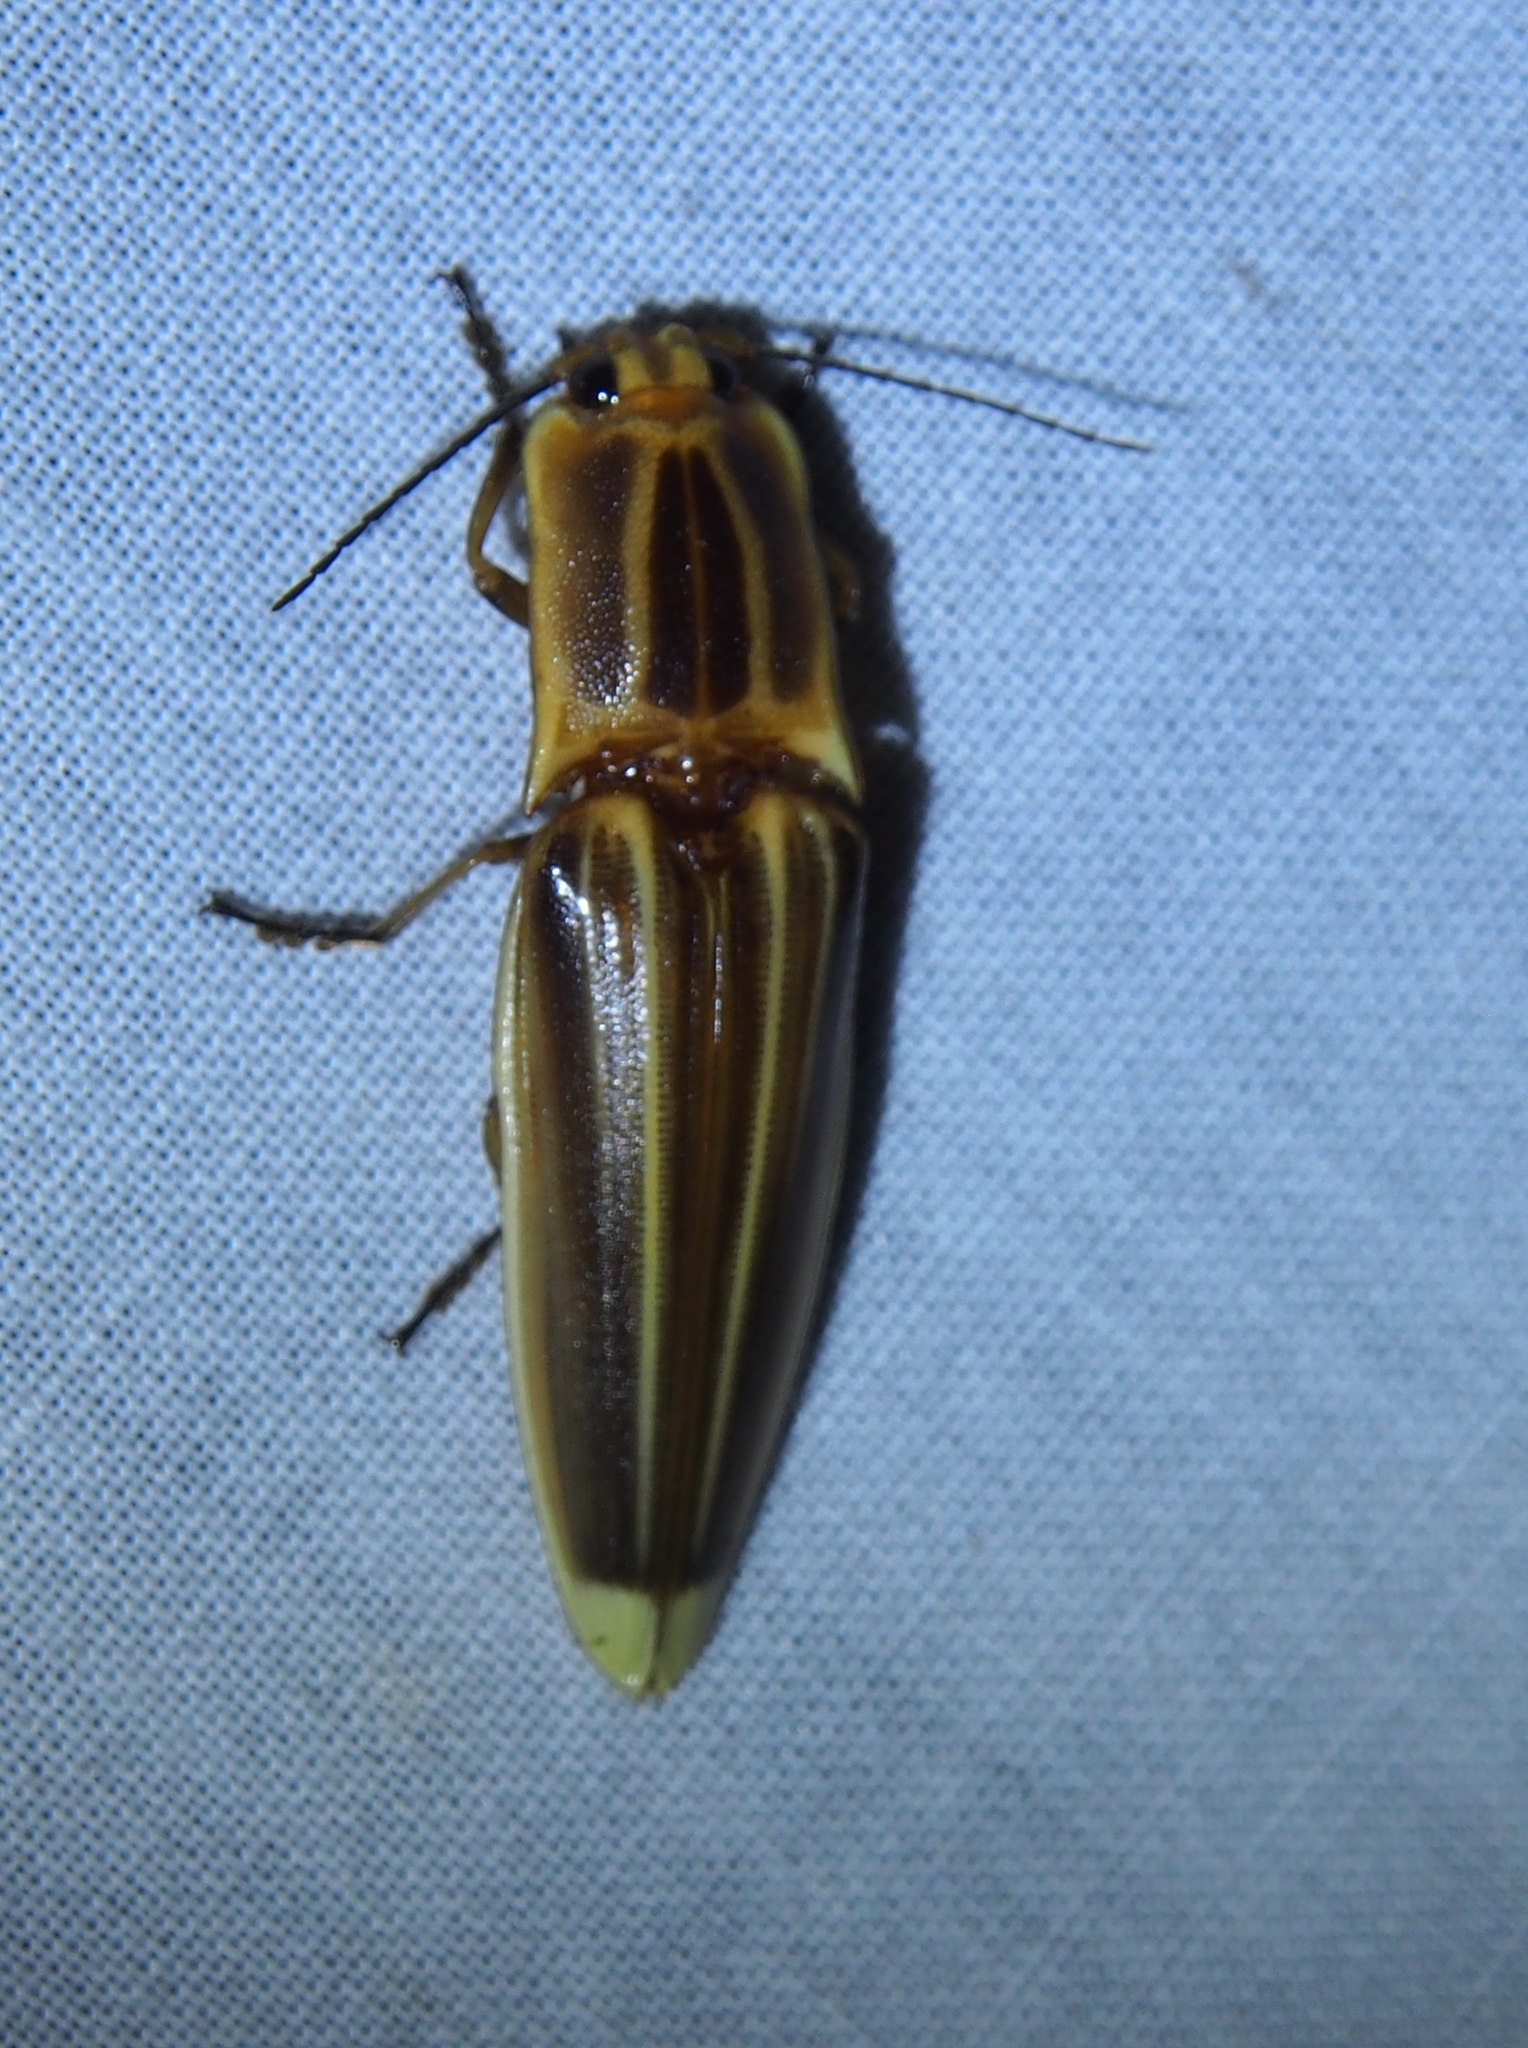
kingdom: Animalia
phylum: Arthropoda
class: Insecta
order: Coleoptera
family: Elateridae
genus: Semiotus
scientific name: Semiotus ligneus
